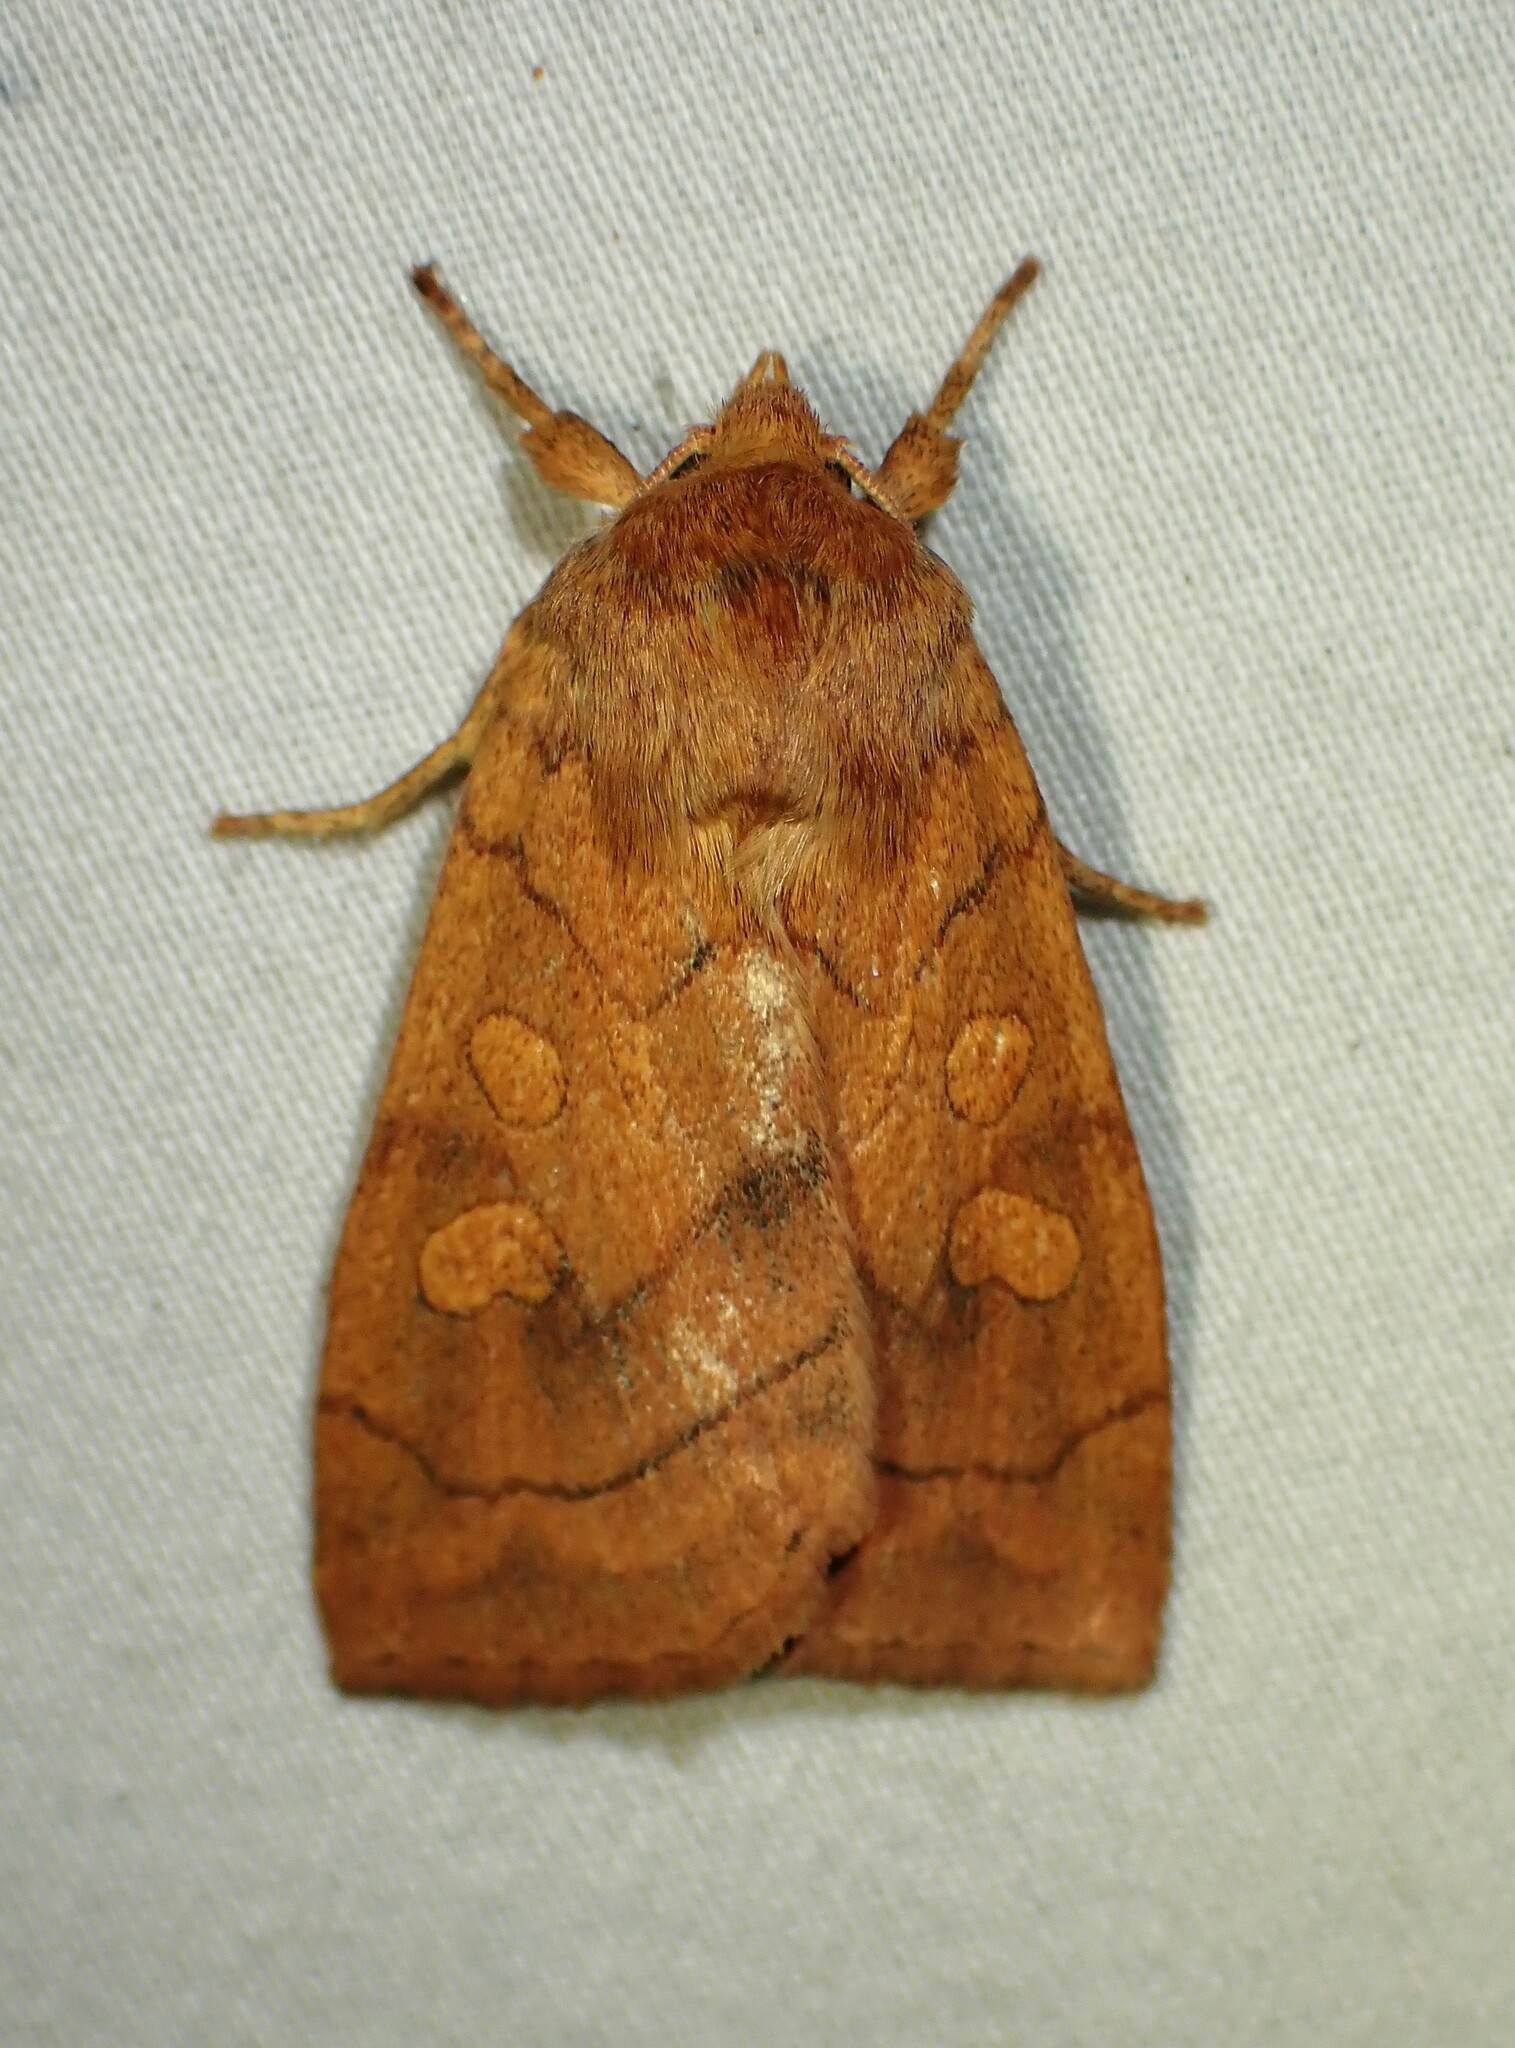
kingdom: Animalia
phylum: Arthropoda
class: Insecta
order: Lepidoptera
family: Noctuidae
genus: Enargia
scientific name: Enargia decolor
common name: Aspen twoleaf tier moth
